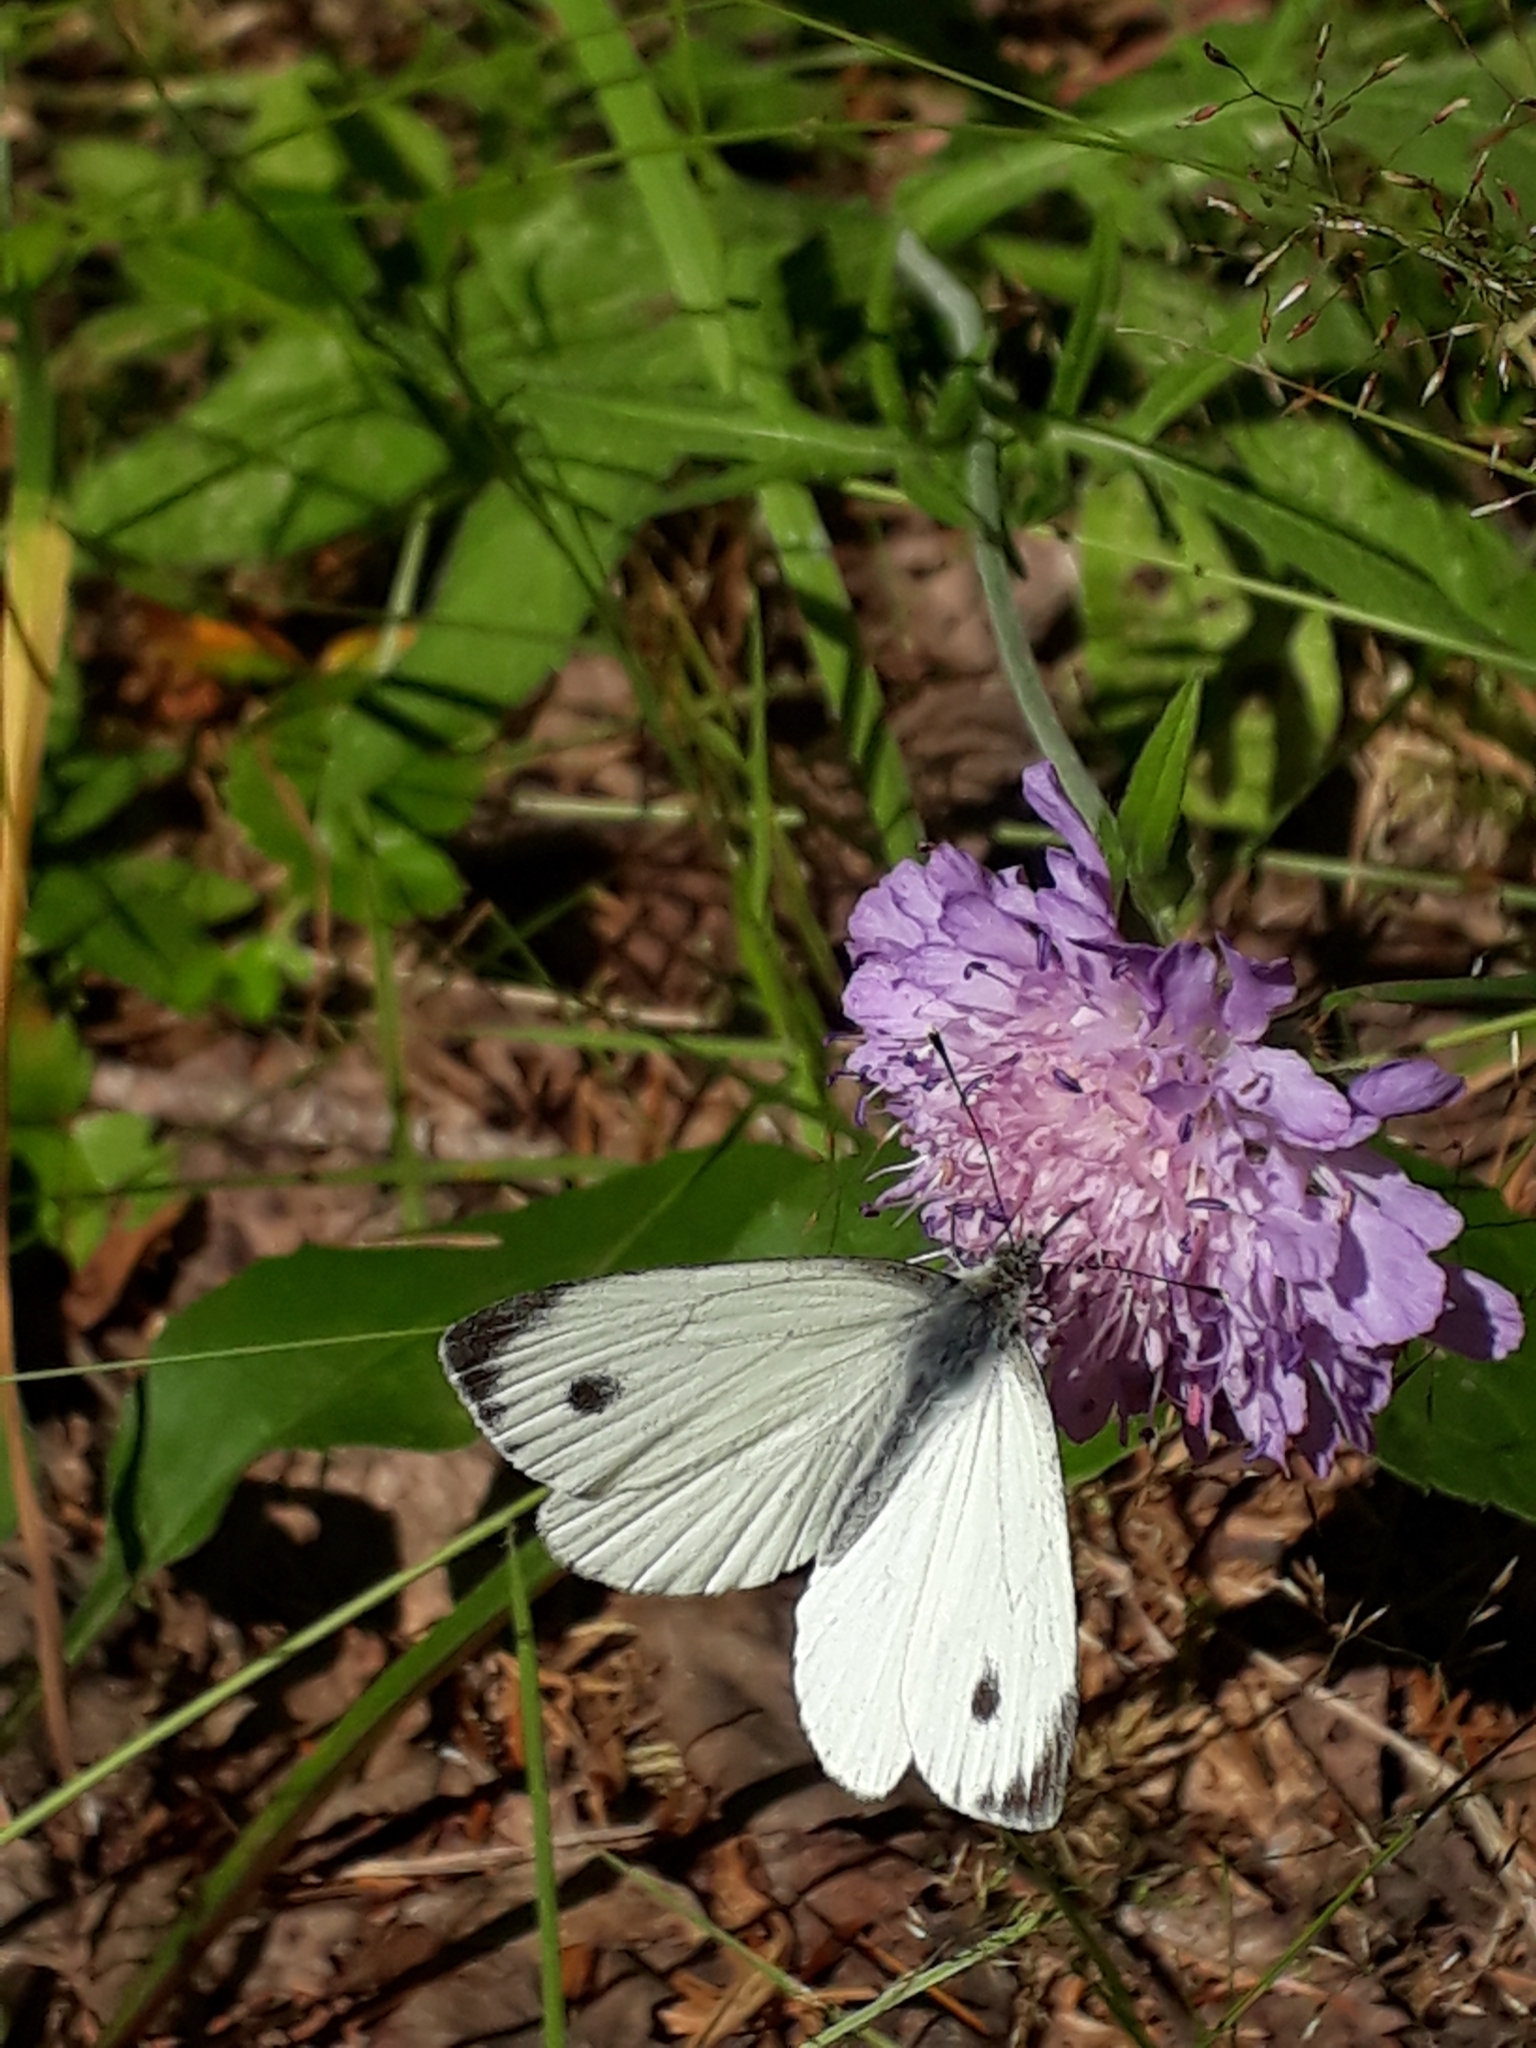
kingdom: Animalia
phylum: Arthropoda
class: Insecta
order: Lepidoptera
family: Pieridae
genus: Pieris
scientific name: Pieris napi
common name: Green-veined white
